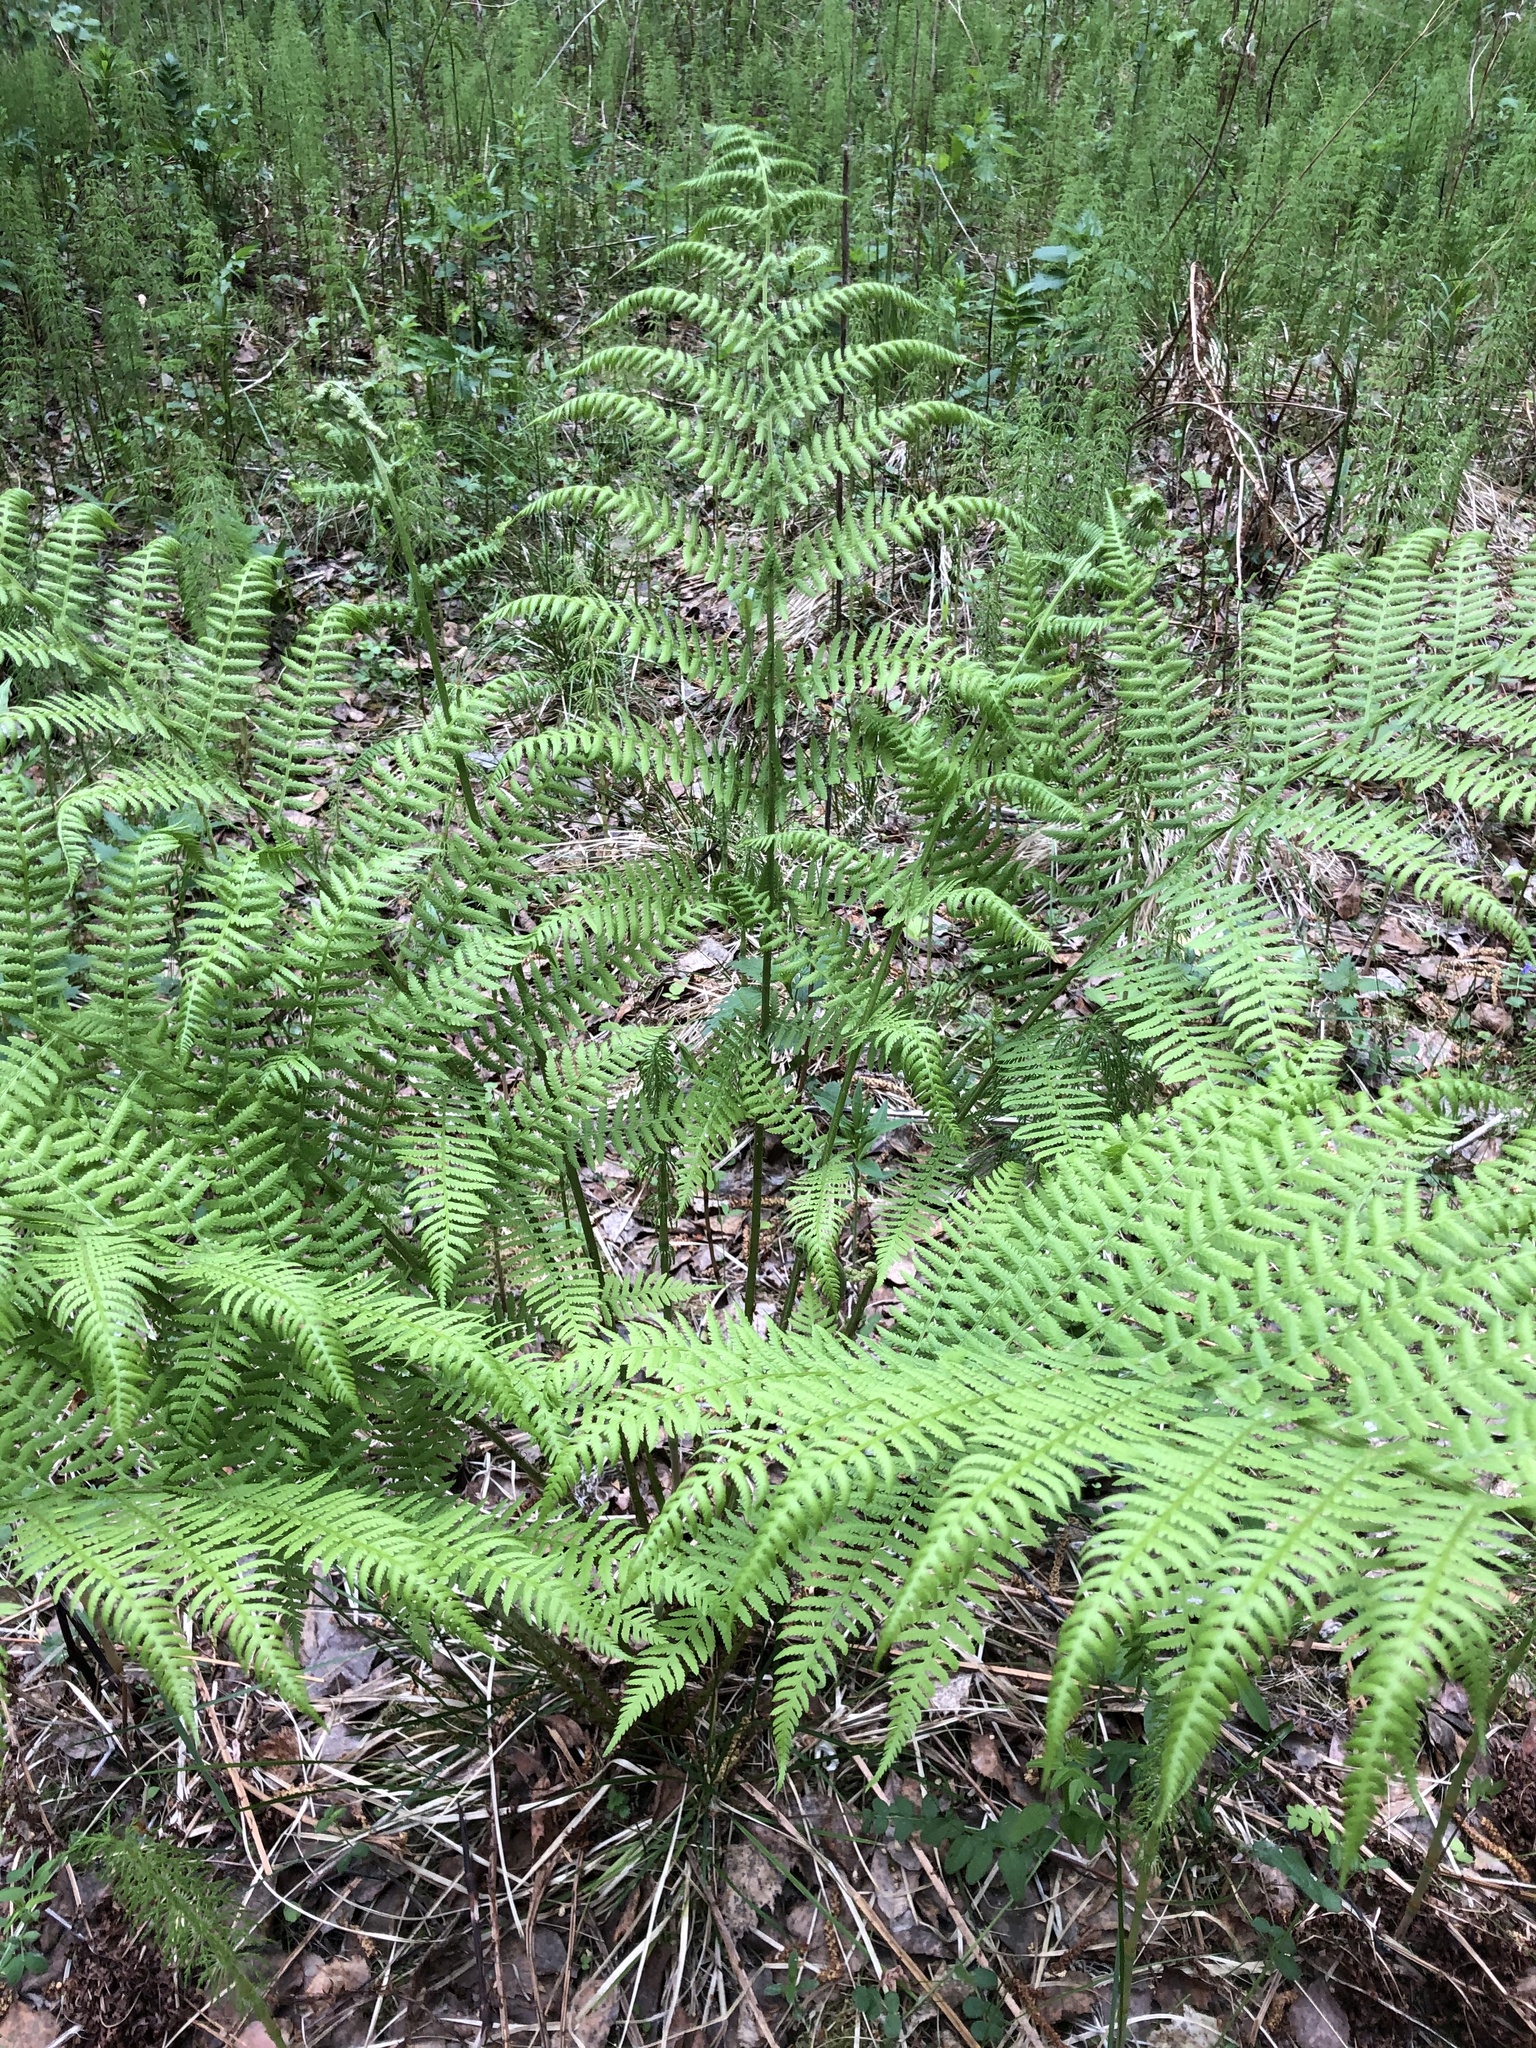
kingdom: Plantae
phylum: Tracheophyta
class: Polypodiopsida
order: Polypodiales
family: Athyriaceae
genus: Athyrium
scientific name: Athyrium filix-femina
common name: Lady fern
